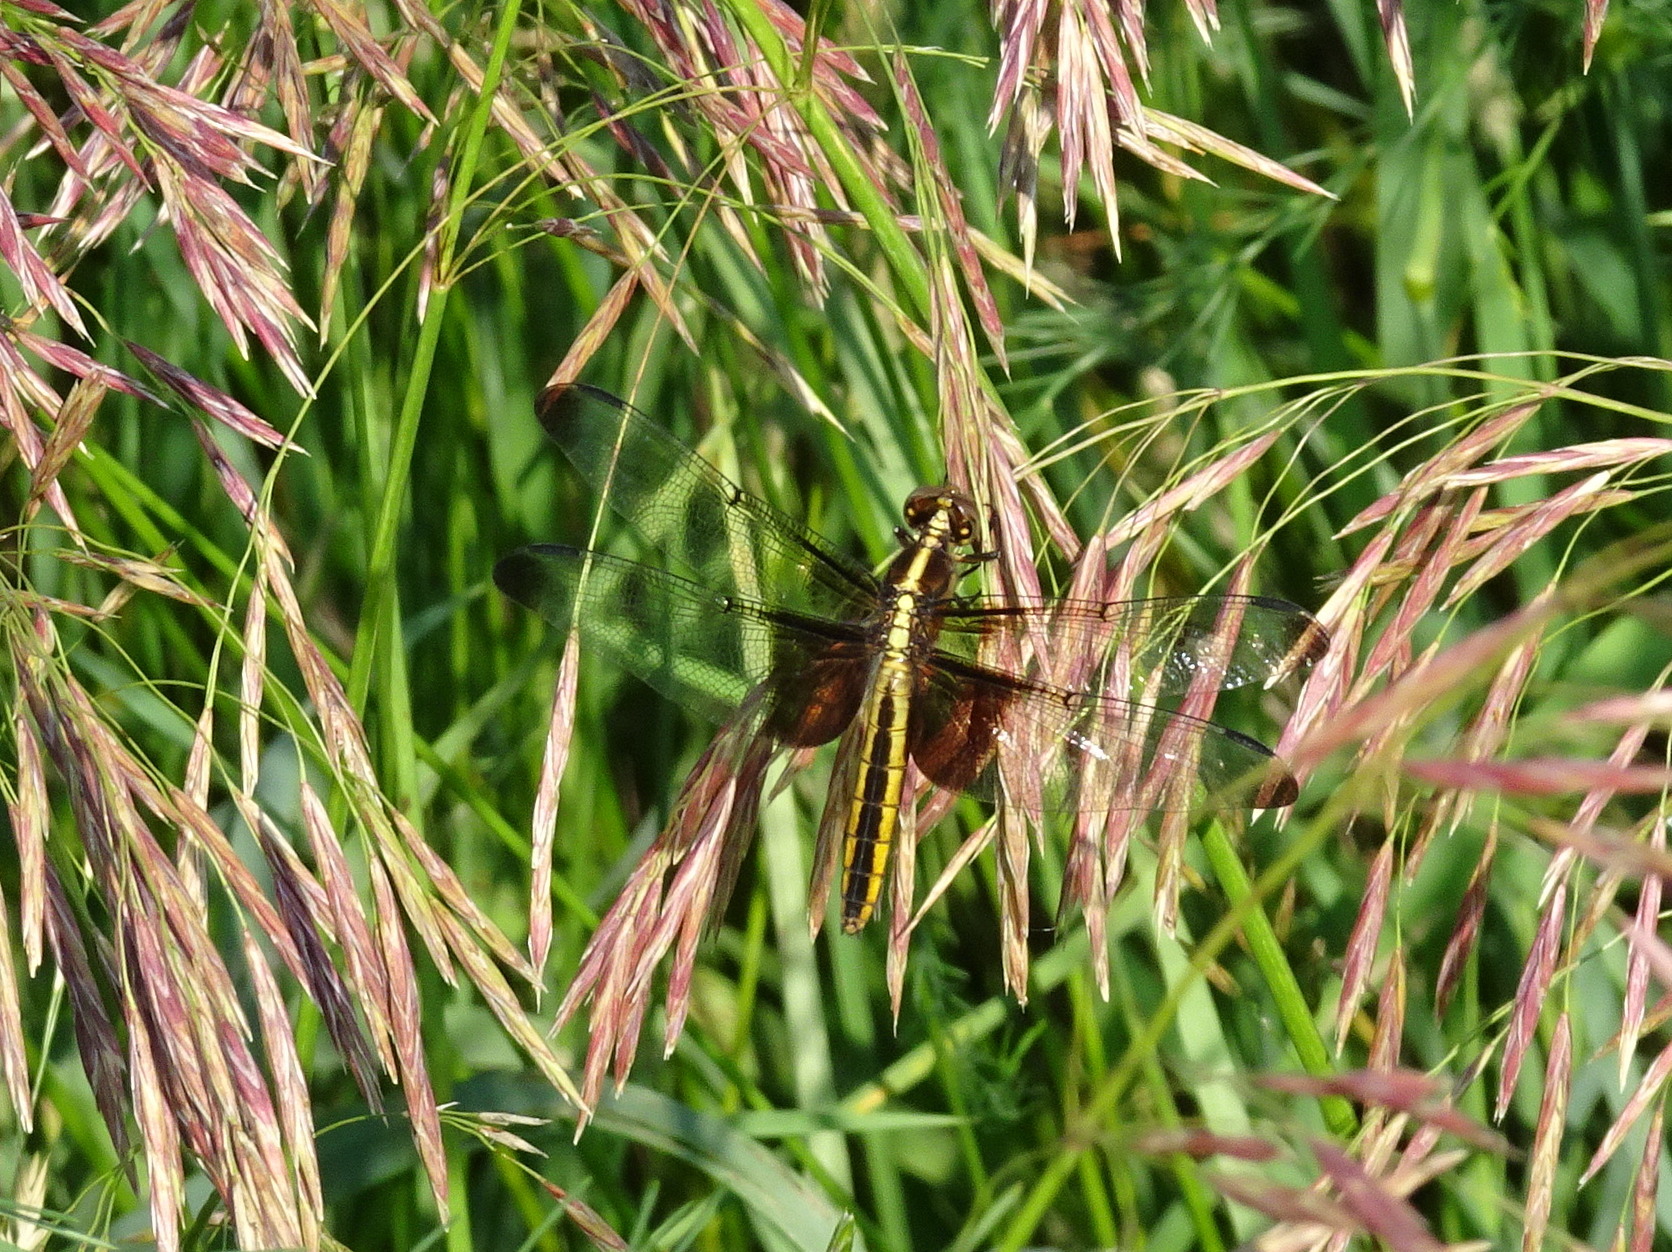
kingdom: Animalia
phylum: Arthropoda
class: Insecta
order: Odonata
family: Libellulidae
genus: Libellula
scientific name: Libellula luctuosa
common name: Widow skimmer
